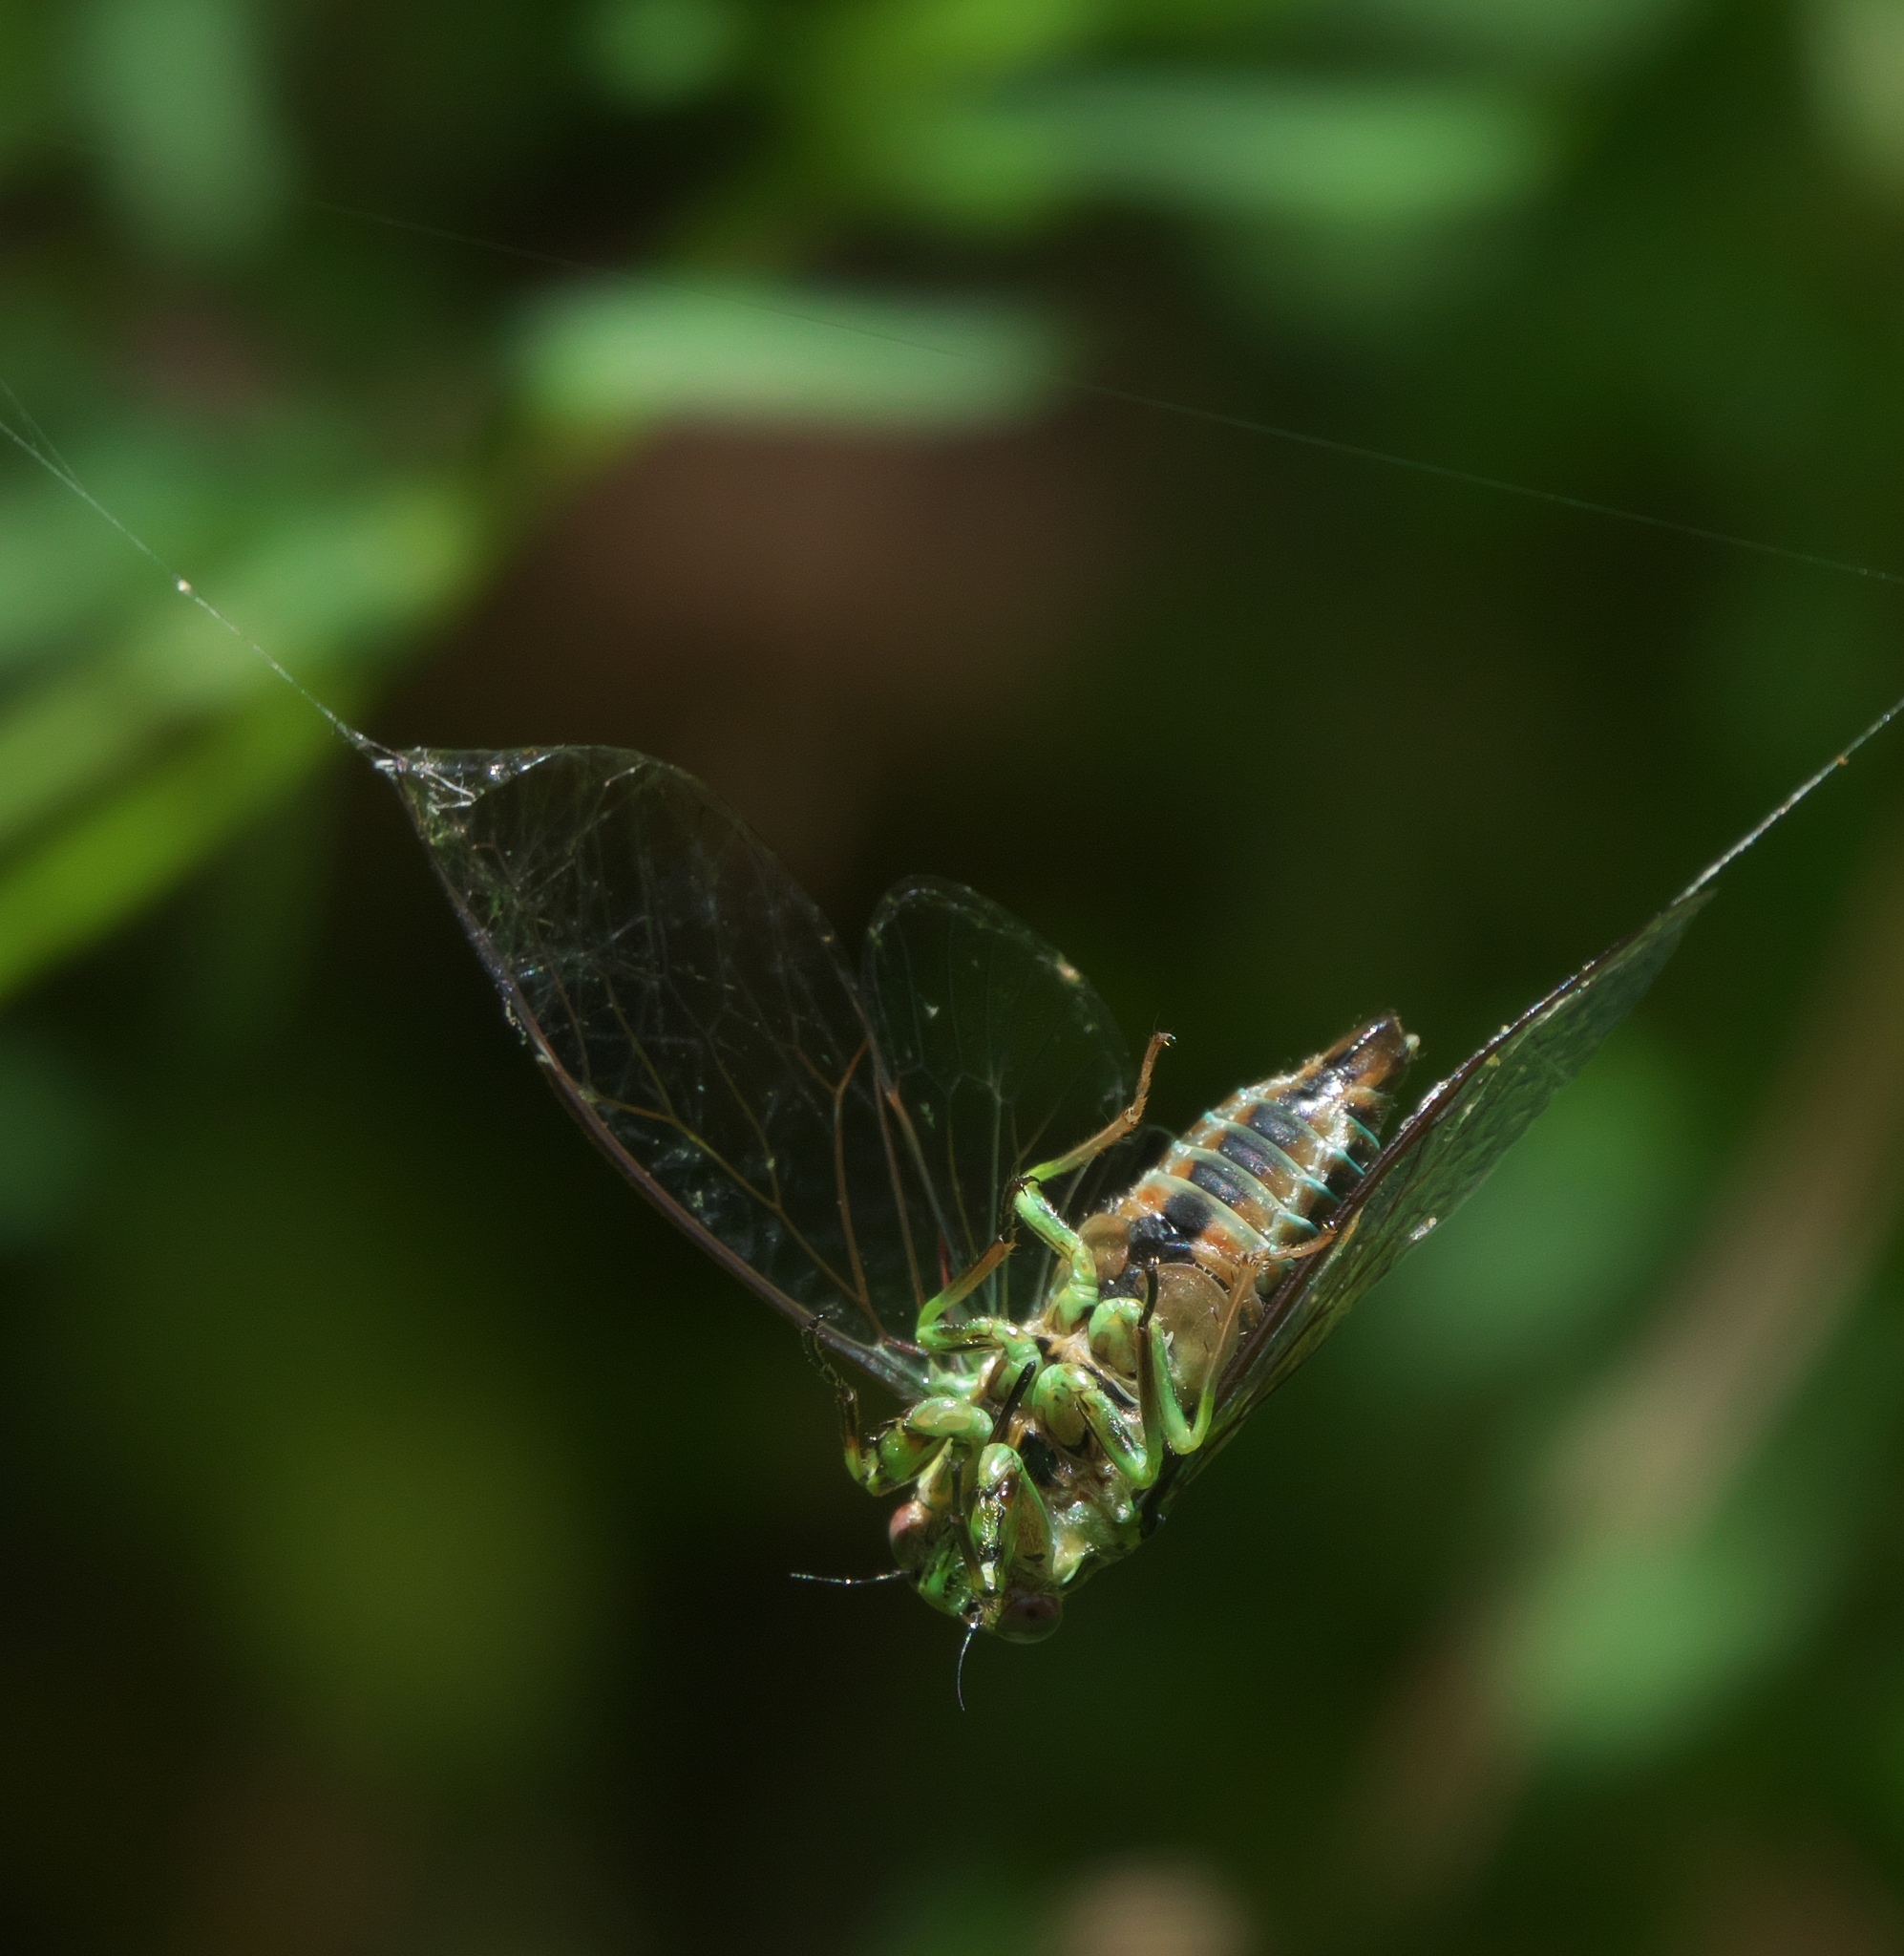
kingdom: Animalia
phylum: Arthropoda
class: Insecta
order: Hemiptera
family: Cicadidae
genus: Kikihia
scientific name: Kikihia scutellaris
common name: Lesser bronze cicada
